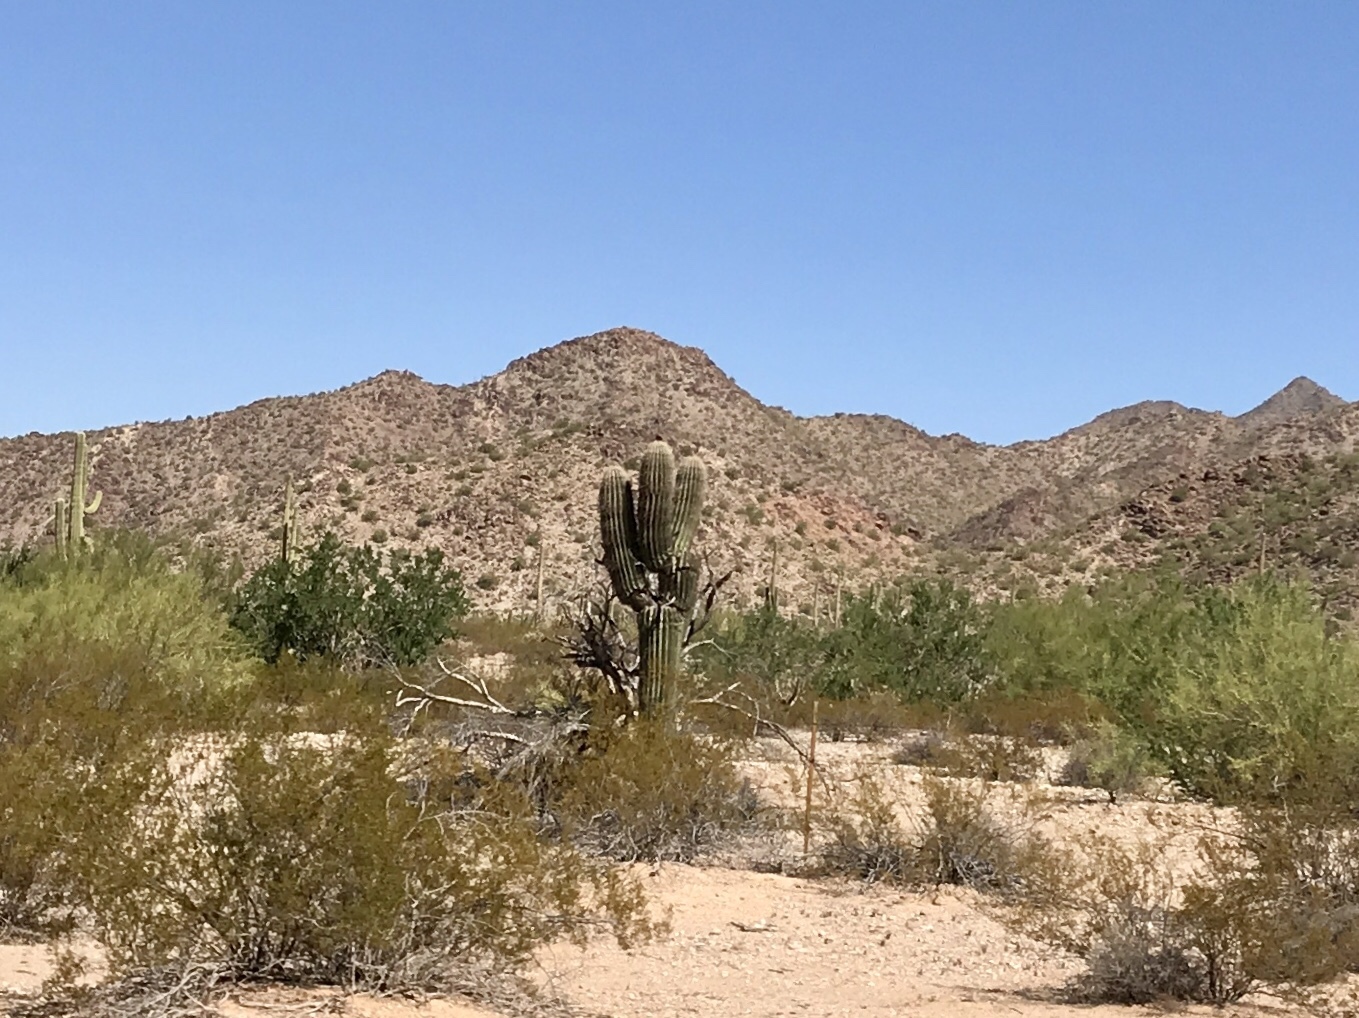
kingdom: Plantae
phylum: Tracheophyta
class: Magnoliopsida
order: Caryophyllales
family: Cactaceae
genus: Carnegiea
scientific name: Carnegiea gigantea
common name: Saguaro
